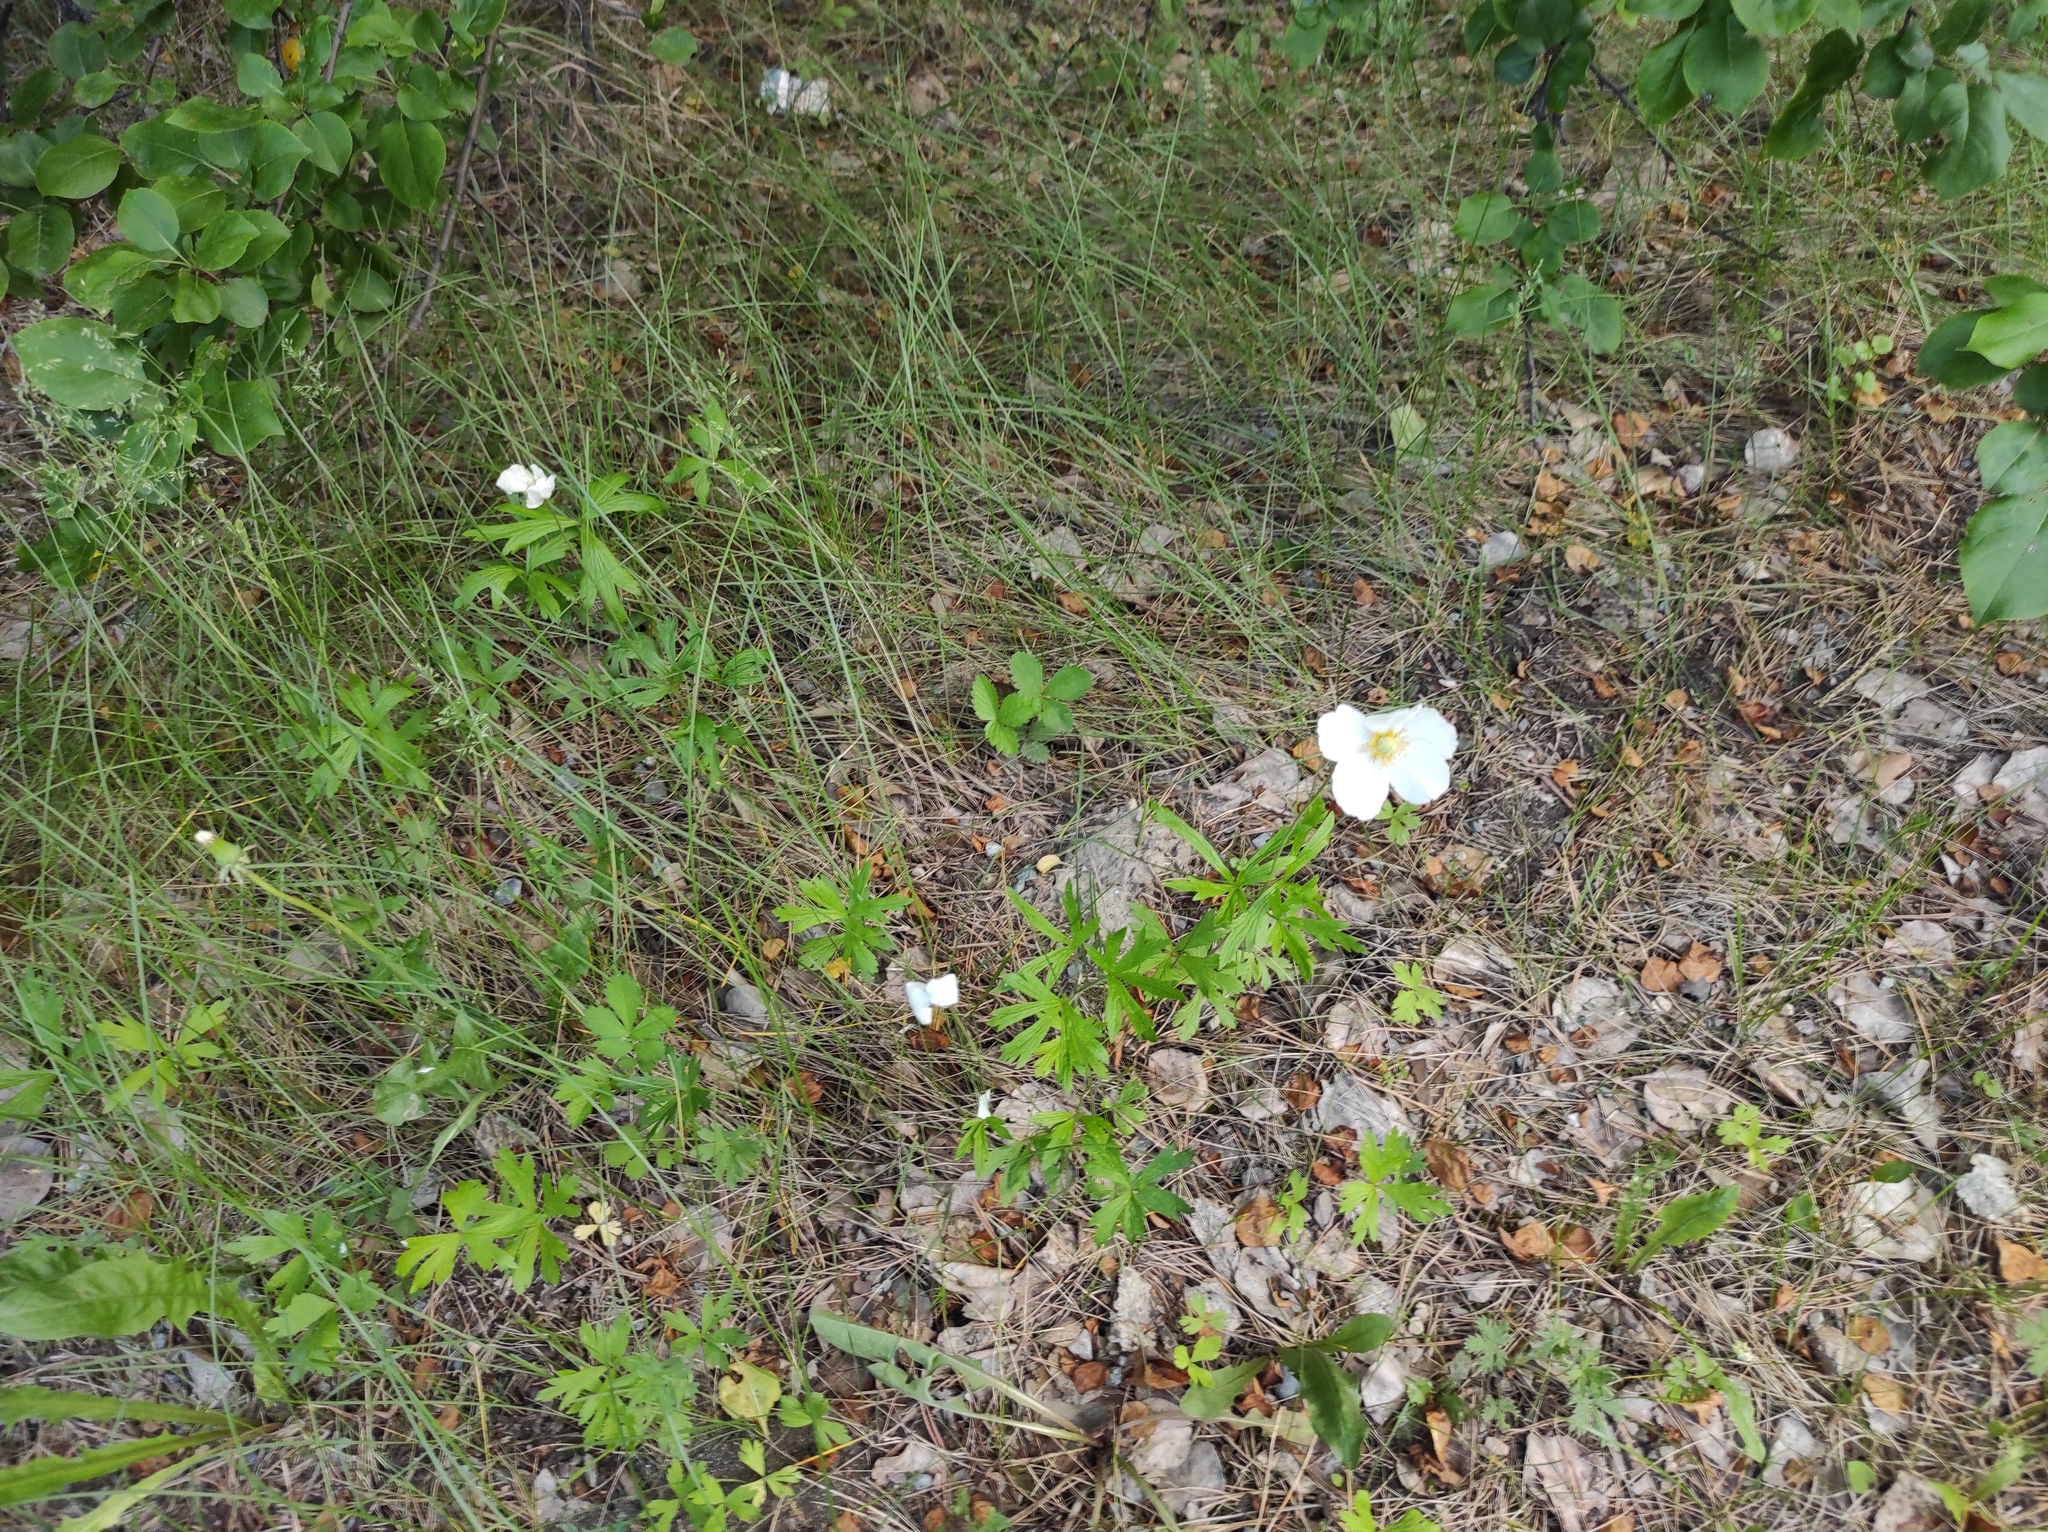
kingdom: Plantae
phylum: Tracheophyta
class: Magnoliopsida
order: Ranunculales
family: Ranunculaceae
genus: Anemone
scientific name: Anemone sylvestris
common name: Snowdrop anemone
